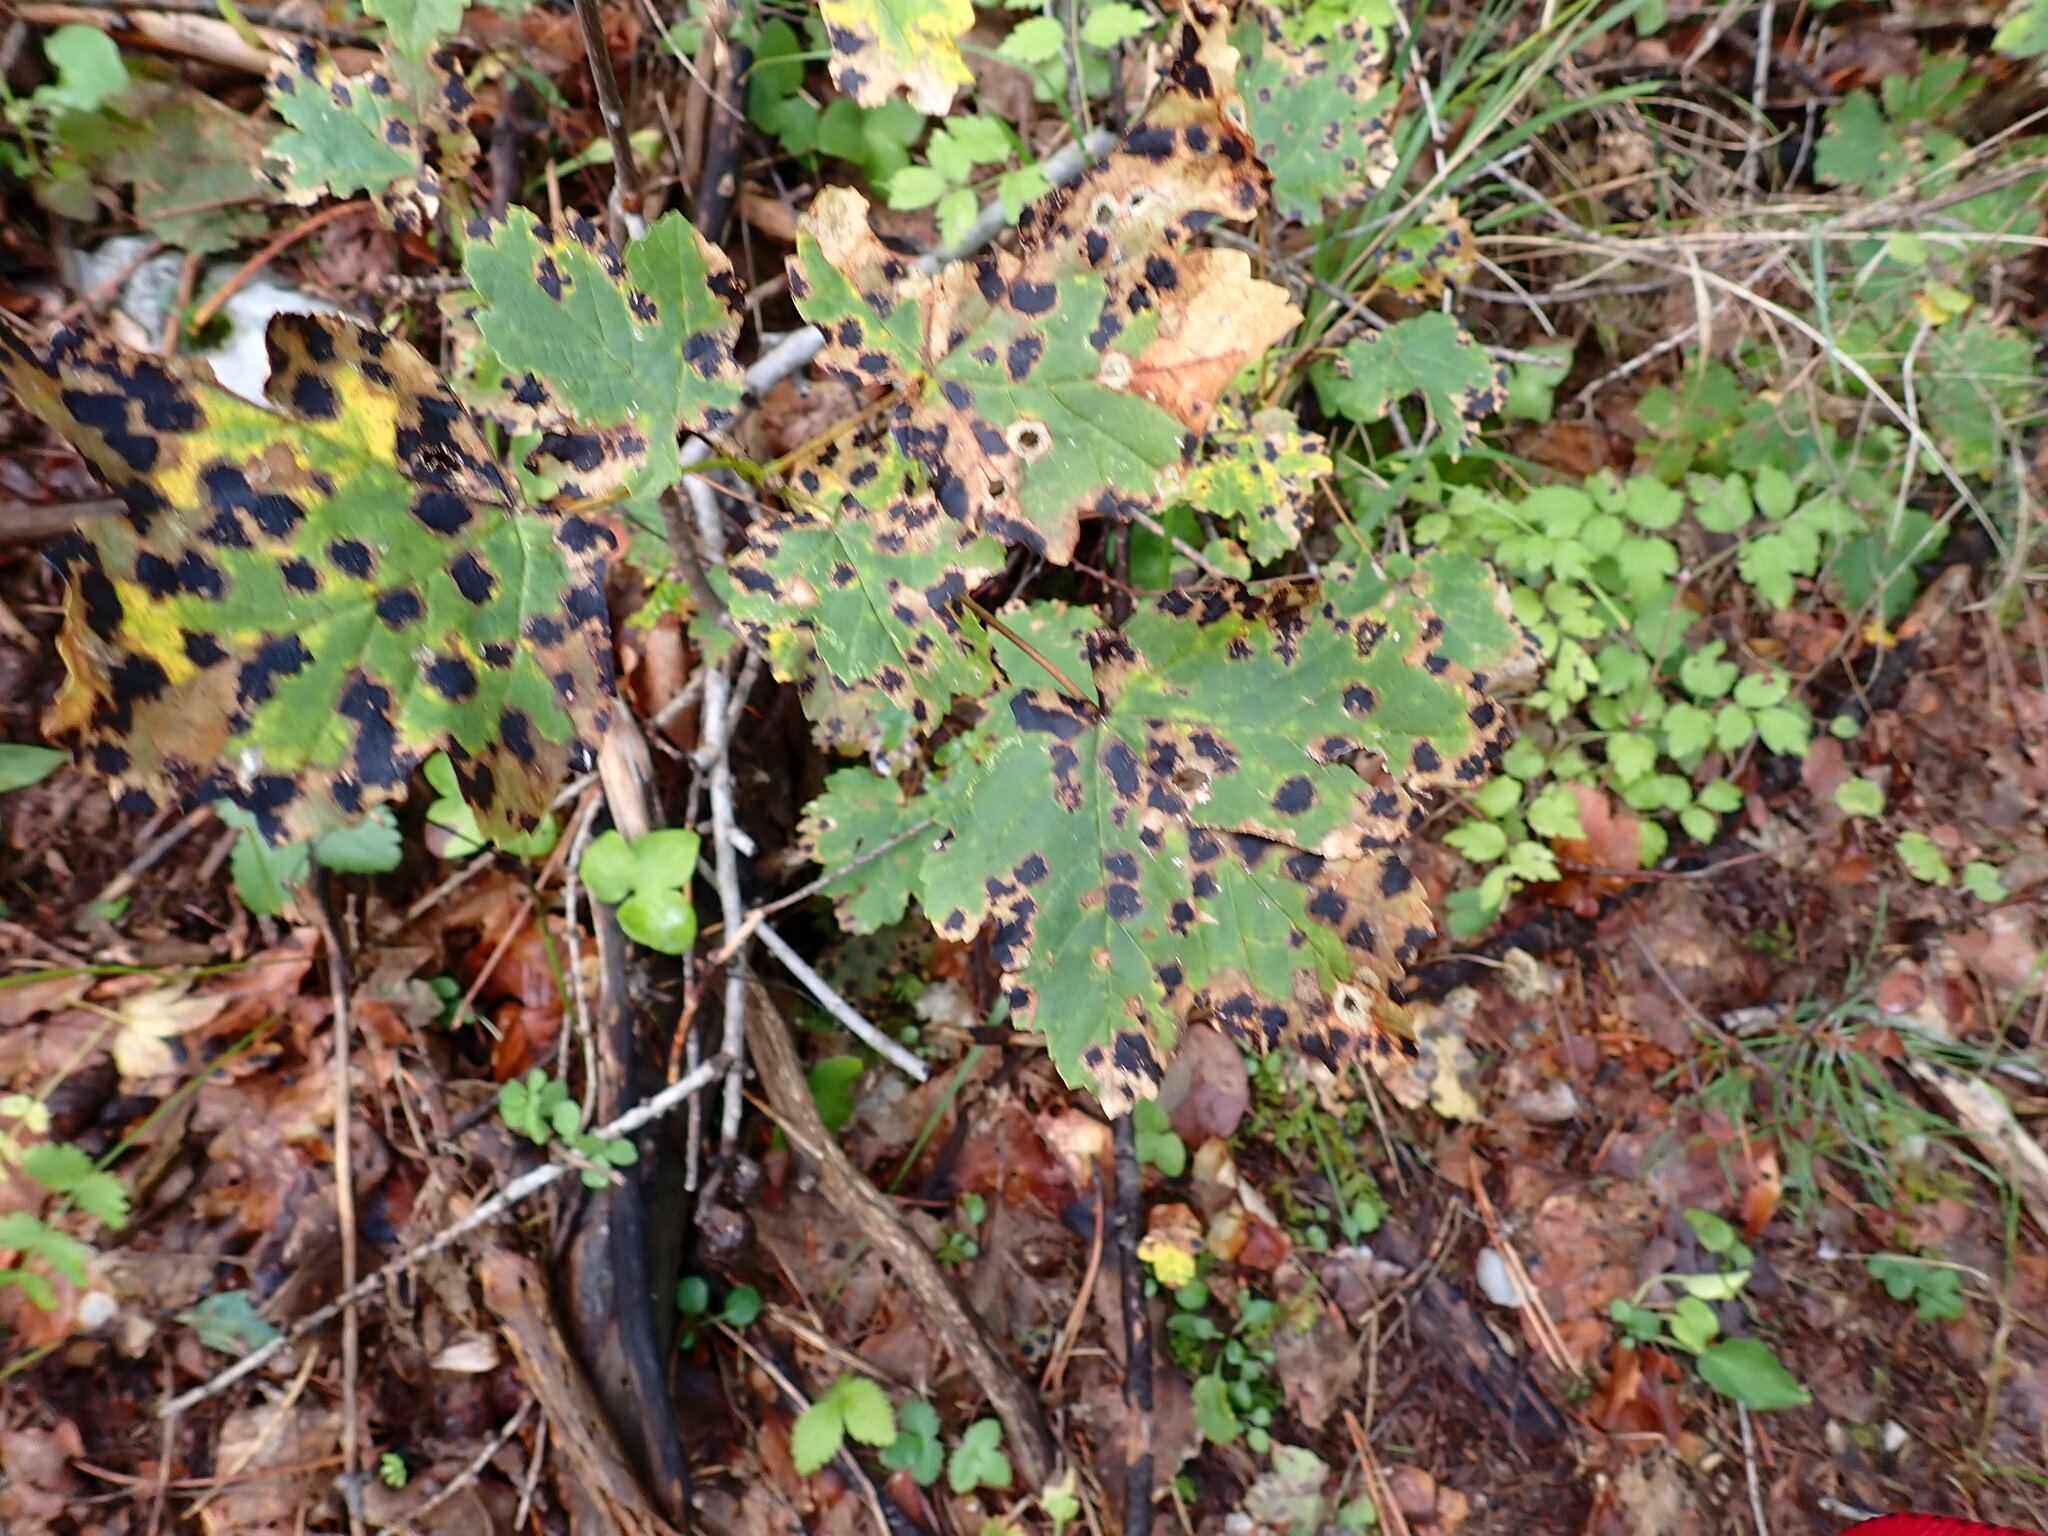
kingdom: Fungi
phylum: Ascomycota
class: Leotiomycetes
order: Rhytismatales
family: Rhytismataceae
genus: Rhytisma
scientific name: Rhytisma acerinum
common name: European tar spot
